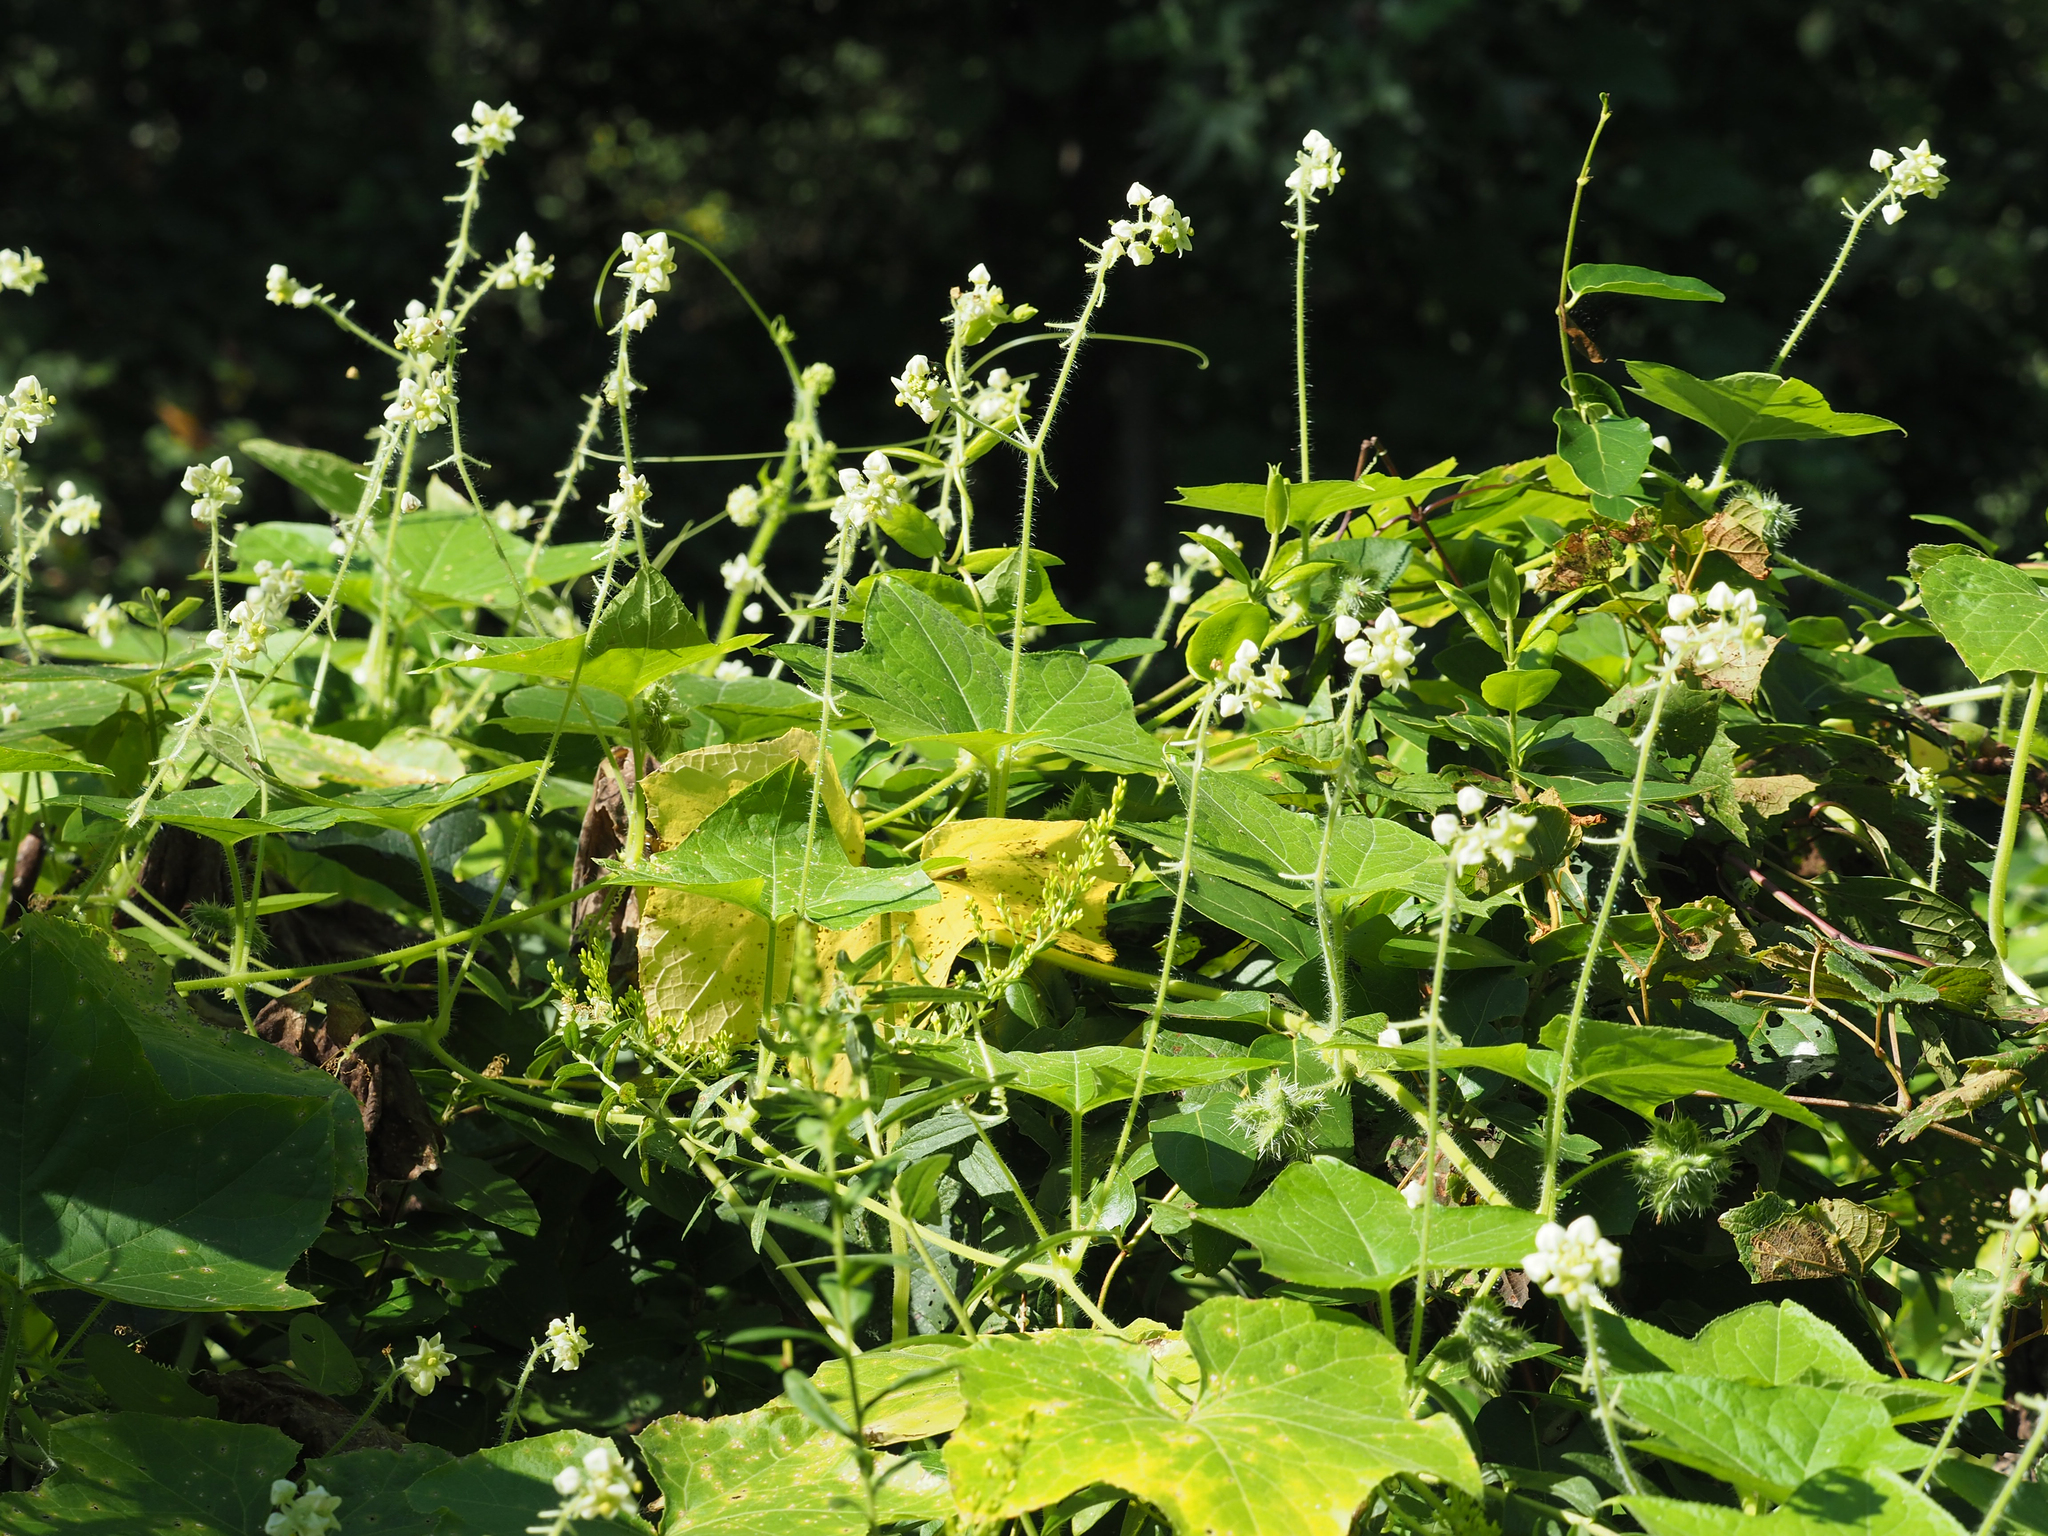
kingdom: Plantae
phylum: Tracheophyta
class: Magnoliopsida
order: Cucurbitales
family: Cucurbitaceae
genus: Sicyos
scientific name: Sicyos angulatus
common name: Angled burr cucumber
